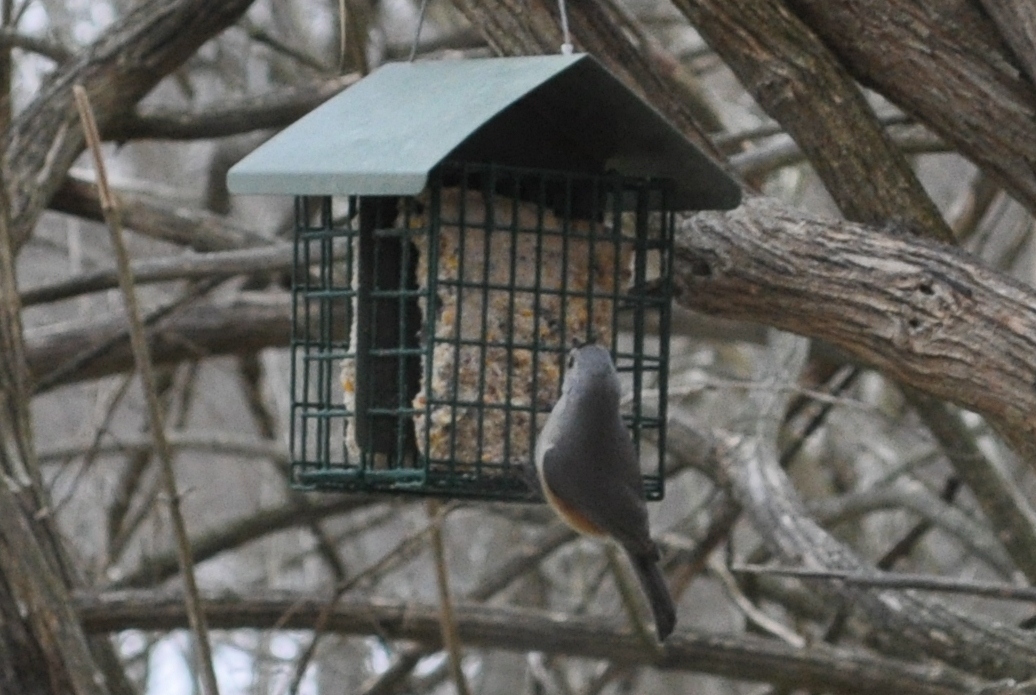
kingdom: Animalia
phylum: Chordata
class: Aves
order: Passeriformes
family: Paridae
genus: Baeolophus
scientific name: Baeolophus bicolor
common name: Tufted titmouse
